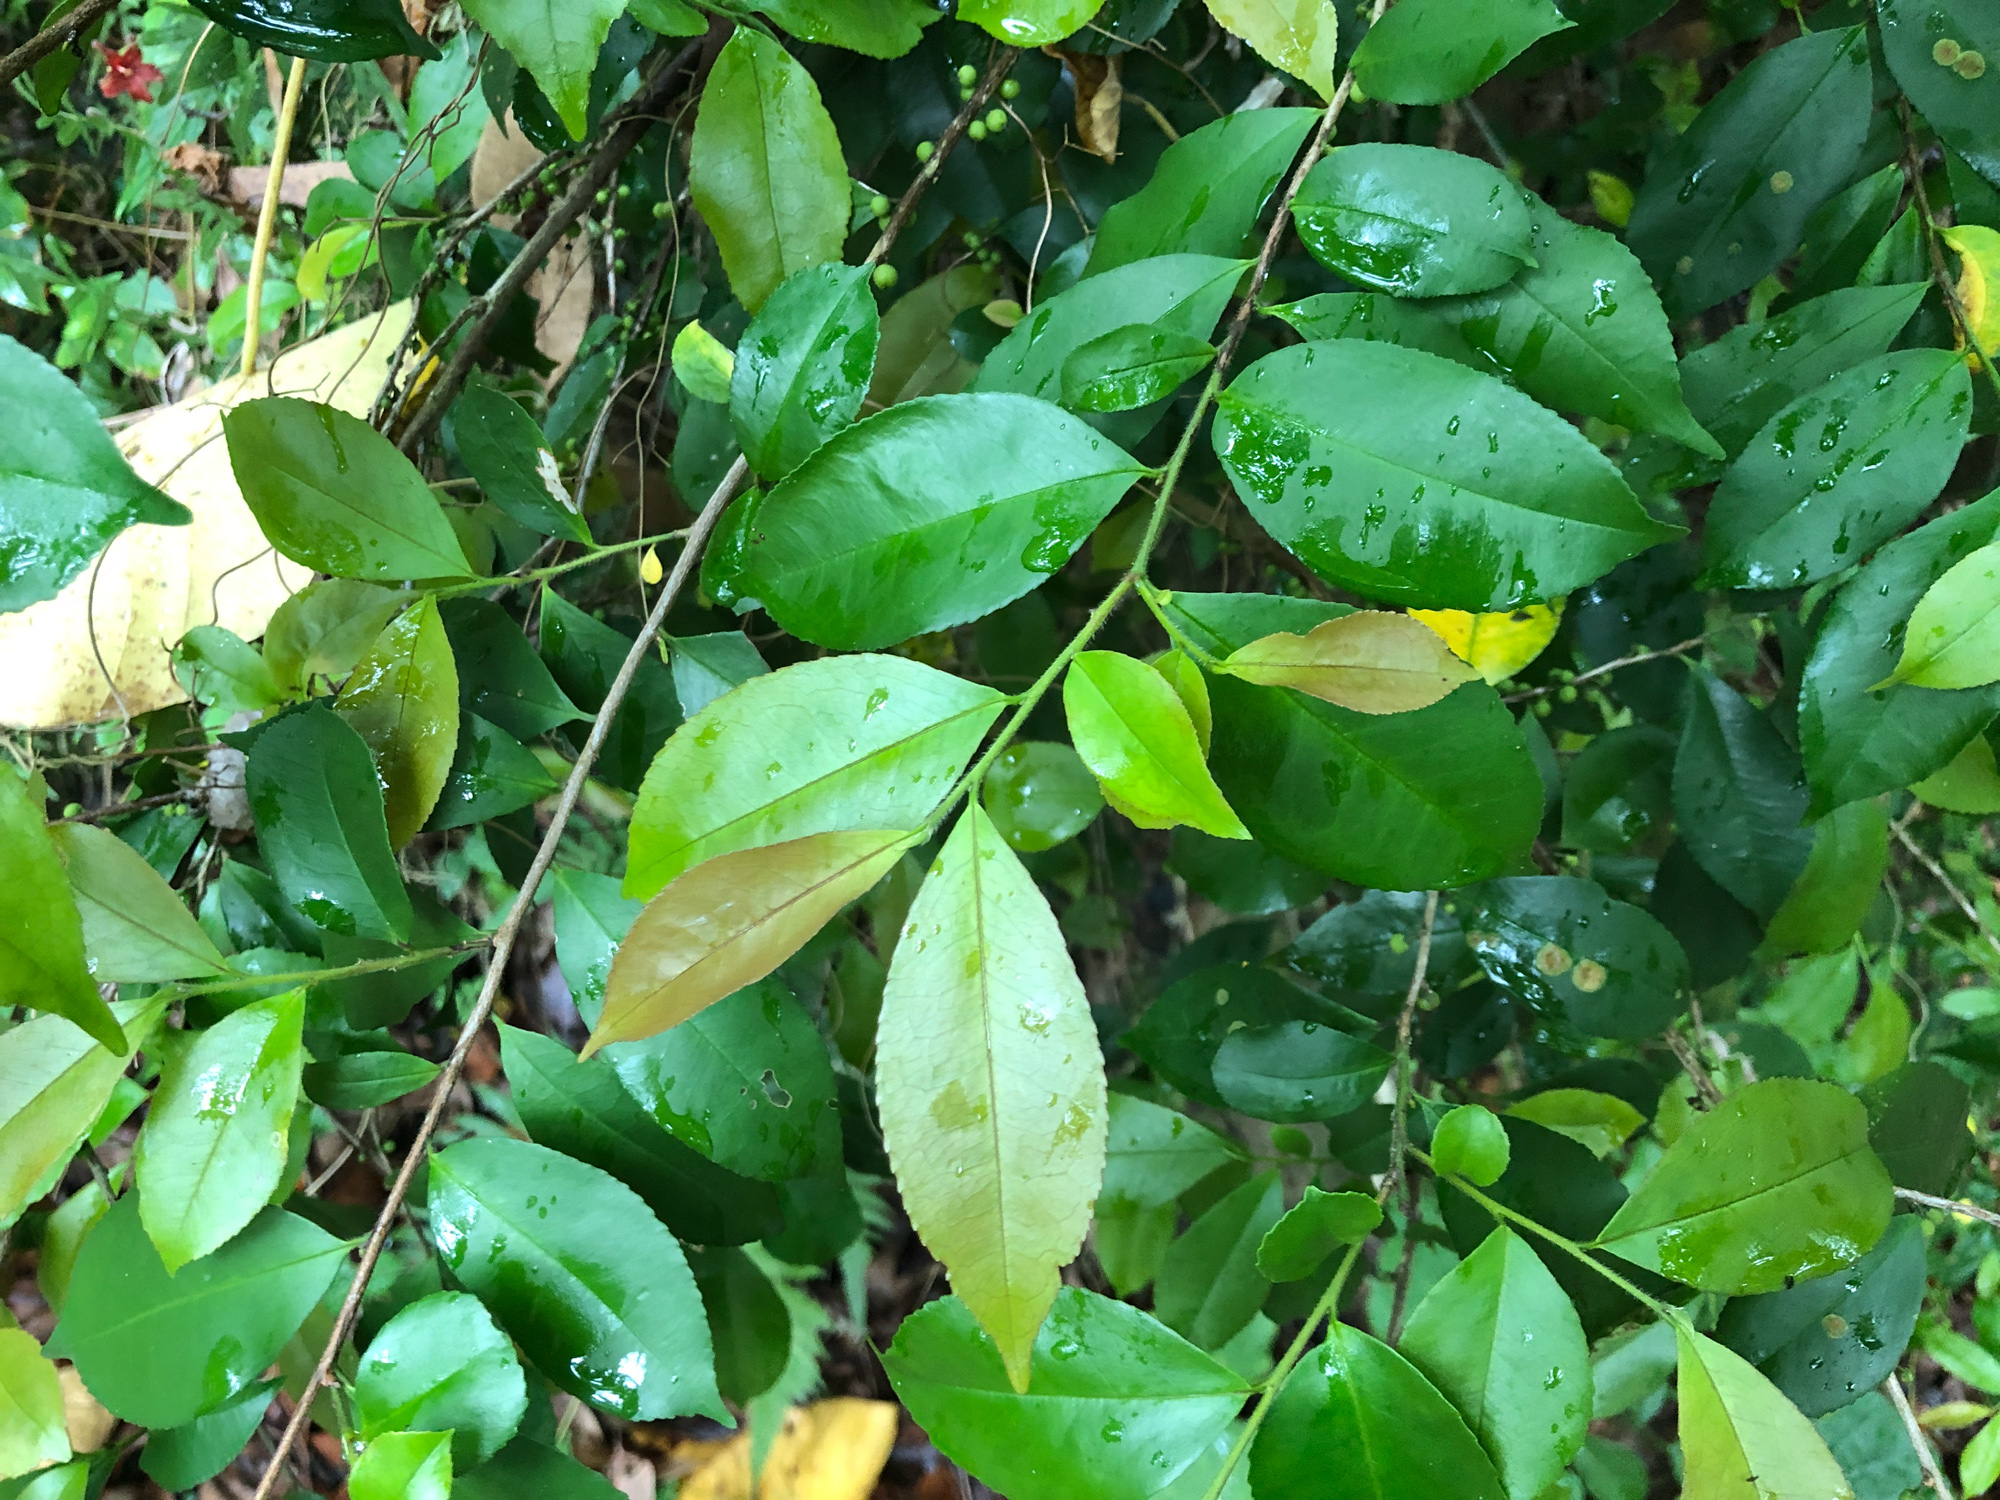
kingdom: Plantae
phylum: Tracheophyta
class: Magnoliopsida
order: Ericales
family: Pentaphylacaceae
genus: Eurya
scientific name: Eurya septata
